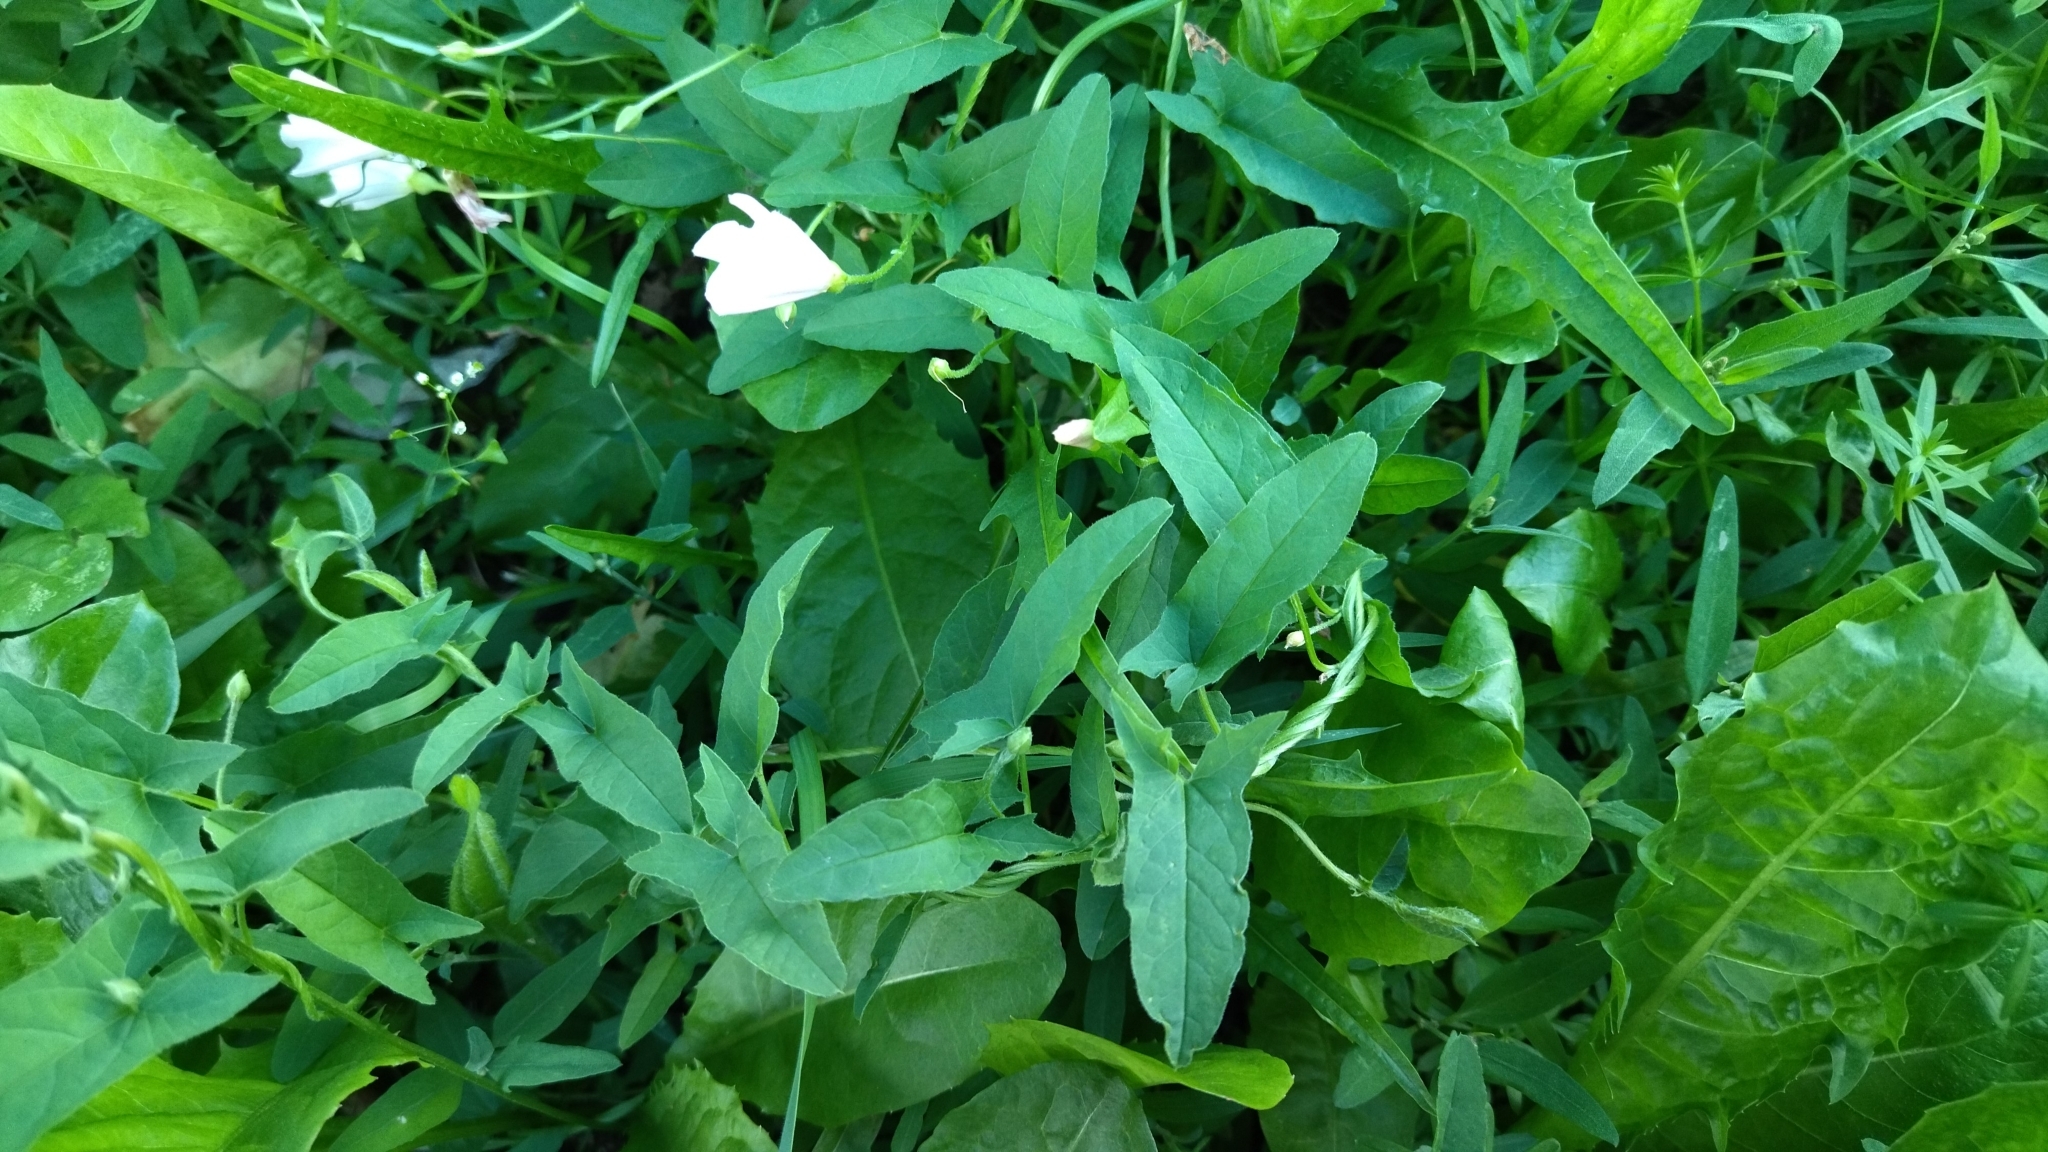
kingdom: Plantae
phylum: Tracheophyta
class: Magnoliopsida
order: Solanales
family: Convolvulaceae
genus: Convolvulus
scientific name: Convolvulus arvensis
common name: Field bindweed
